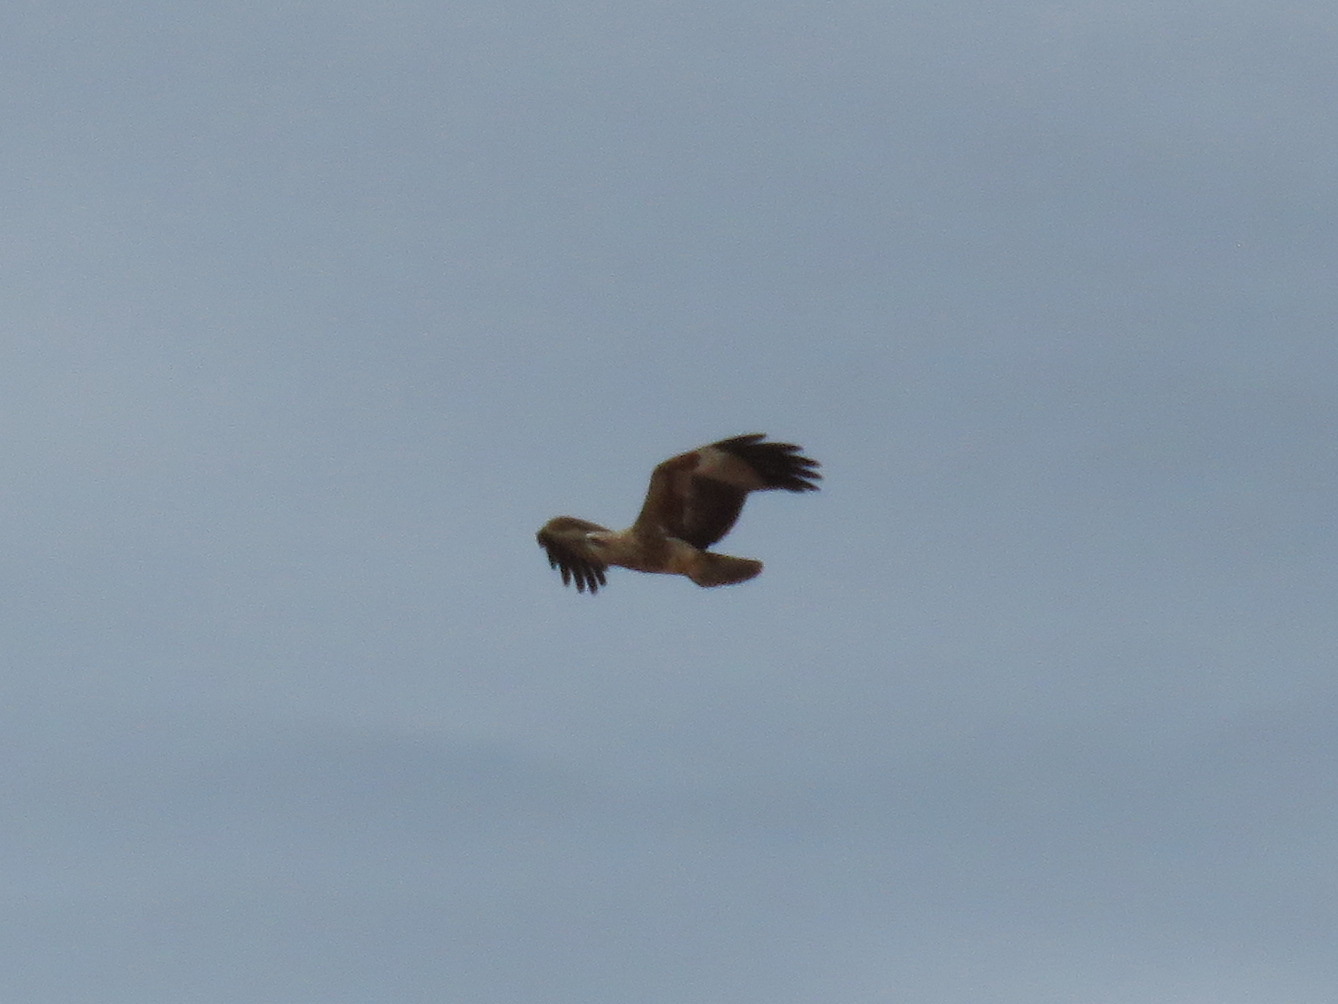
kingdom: Animalia
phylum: Chordata
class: Aves
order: Accipitriformes
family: Accipitridae
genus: Haliastur
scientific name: Haliastur sphenurus
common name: Whistling kite
